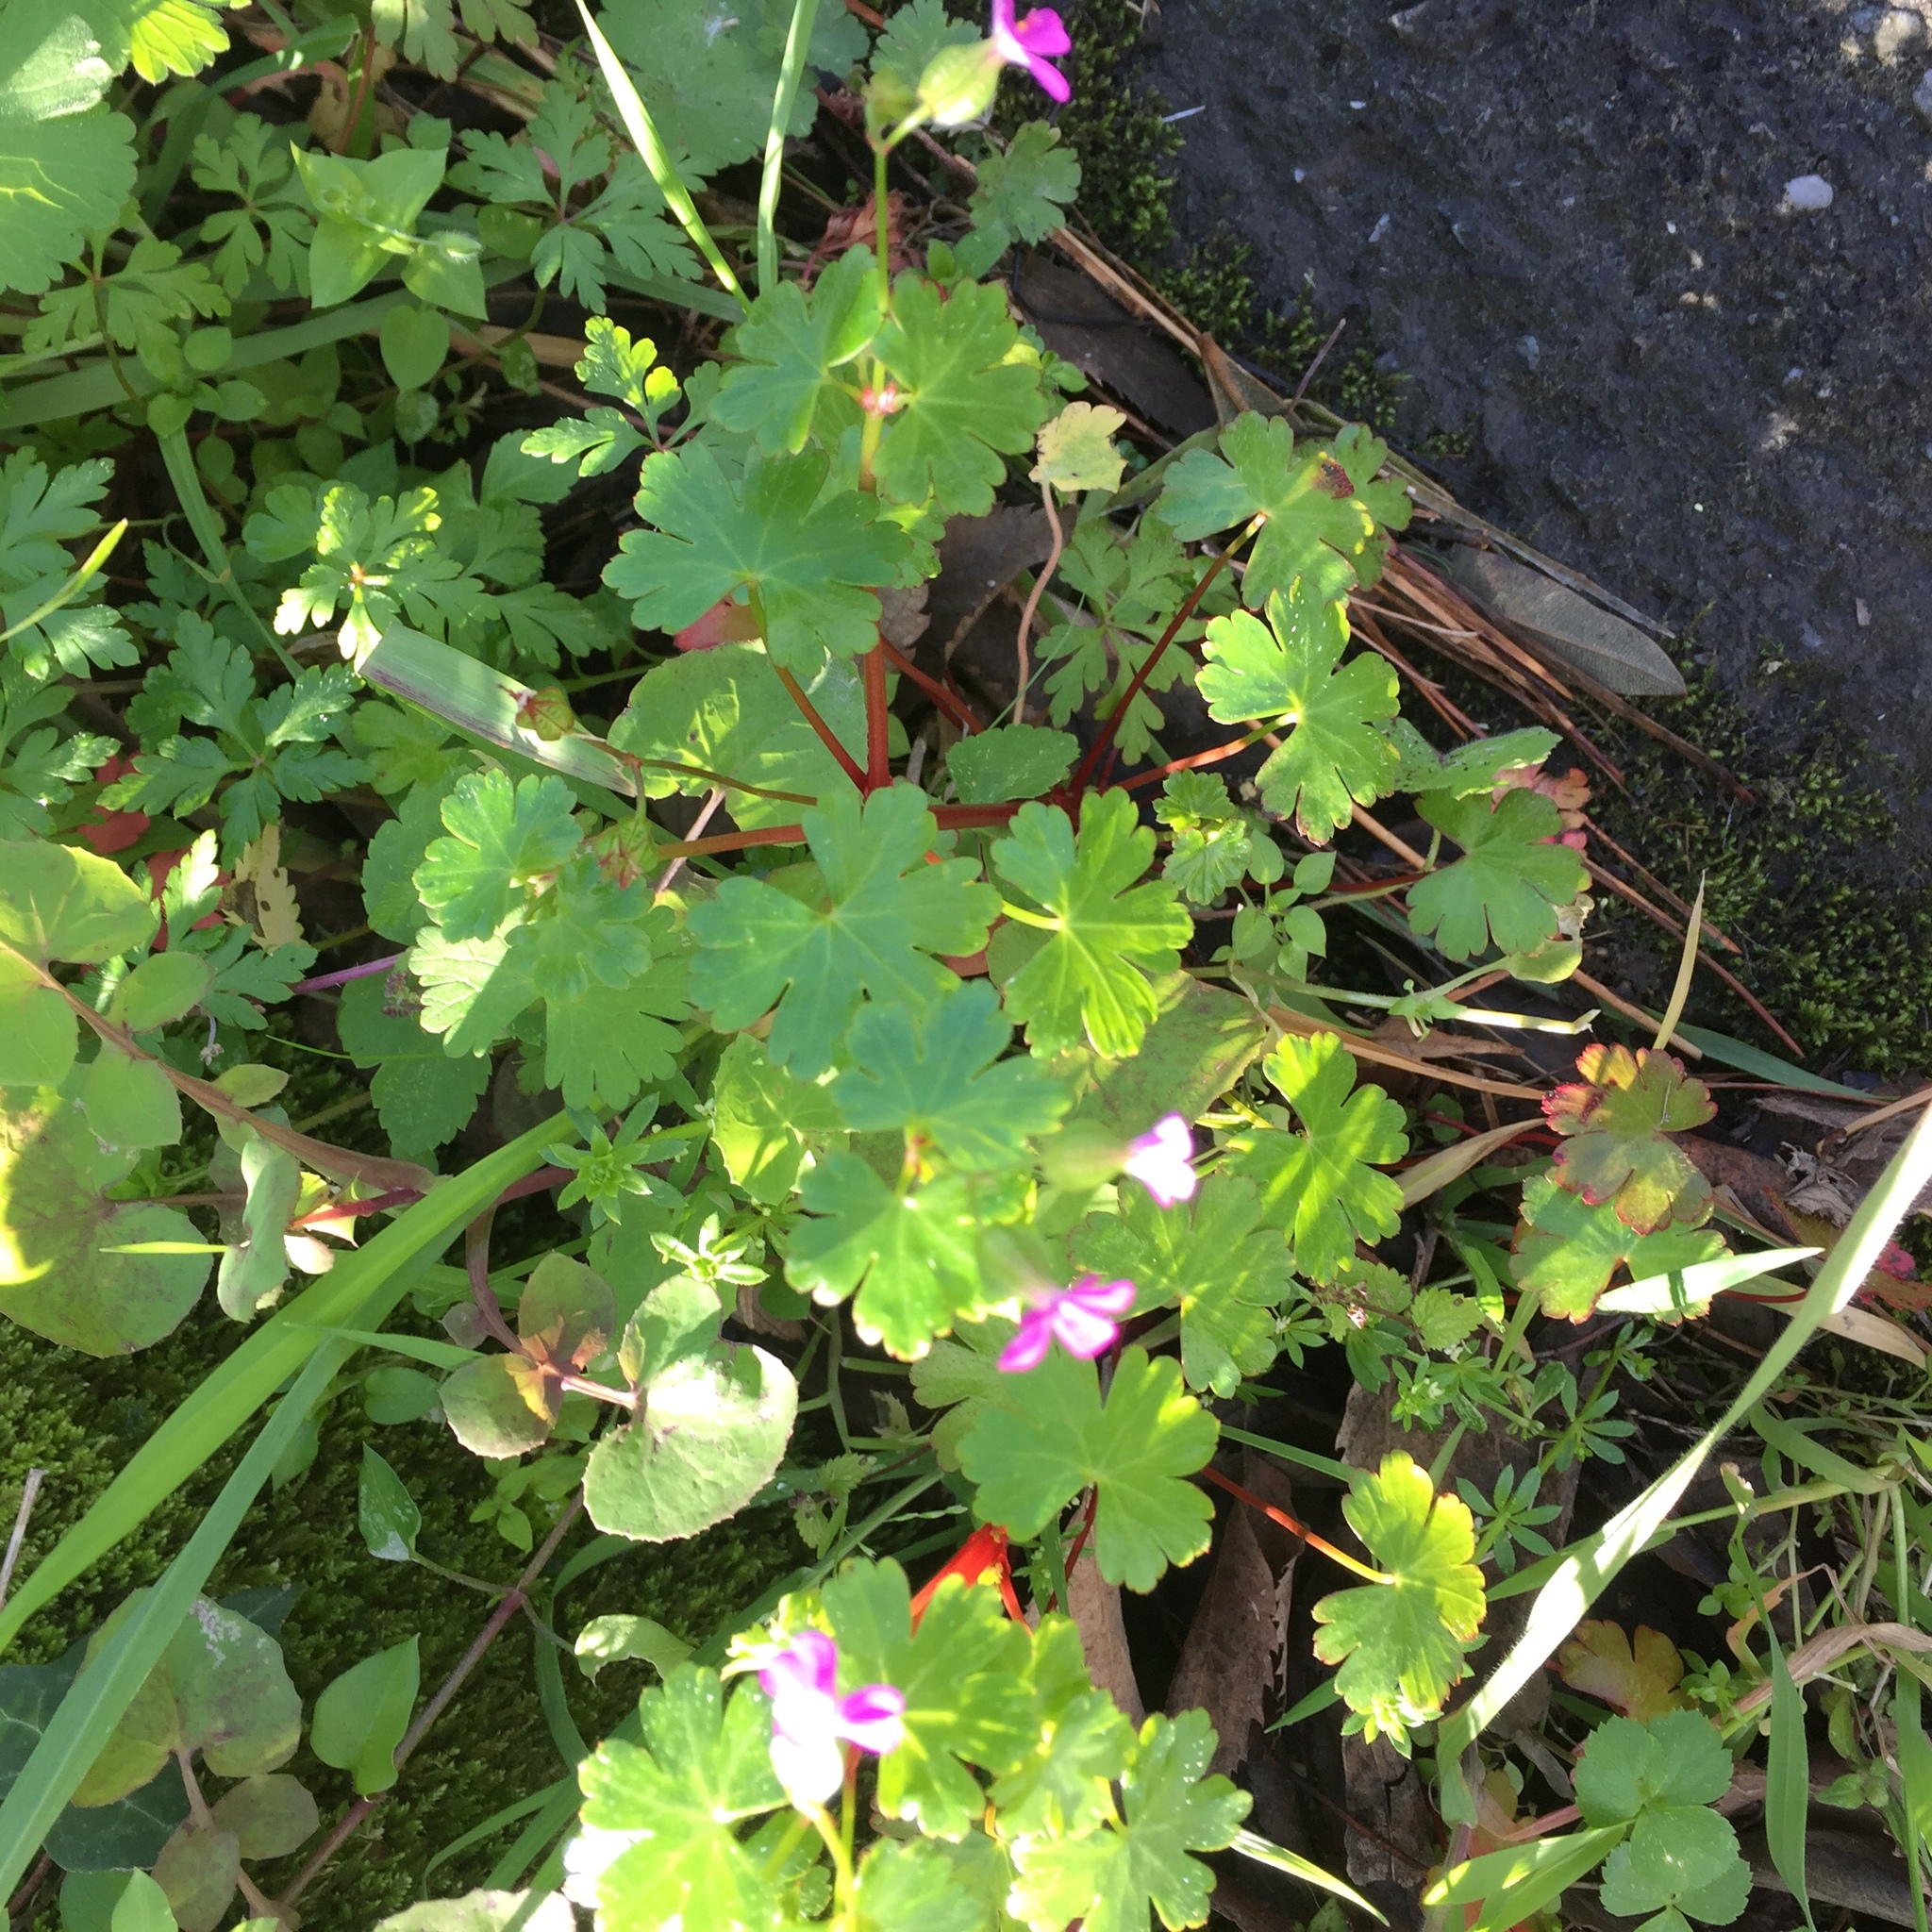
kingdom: Plantae
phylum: Tracheophyta
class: Magnoliopsida
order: Geraniales
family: Geraniaceae
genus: Geranium
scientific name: Geranium lucidum
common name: Shining crane's-bill
